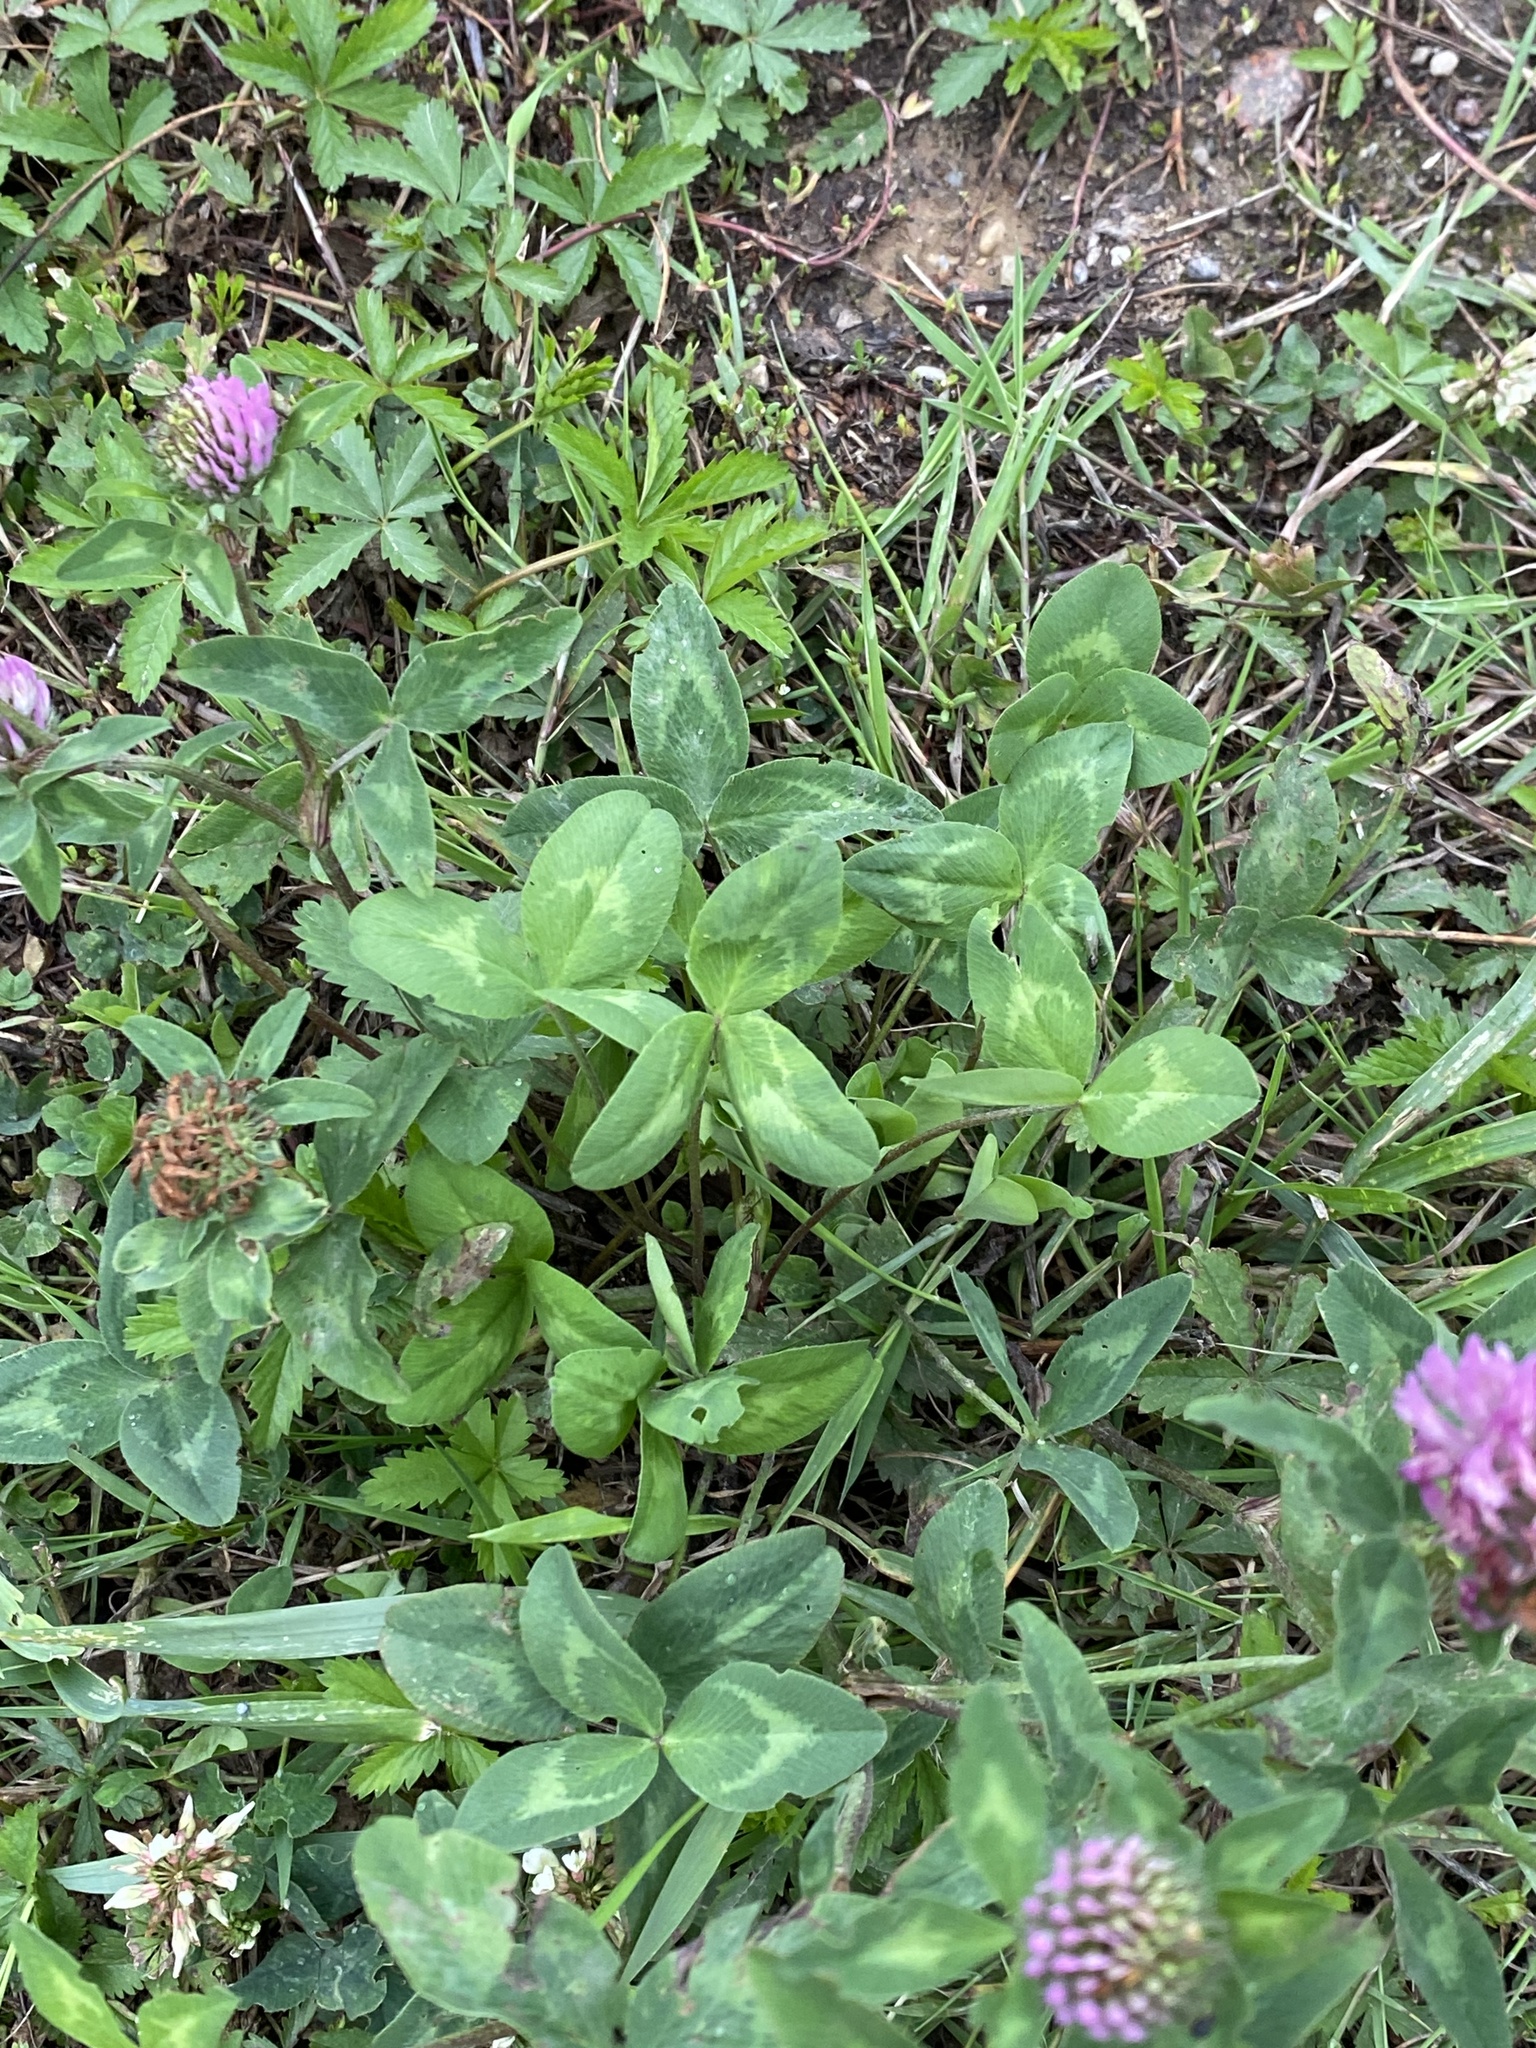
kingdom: Plantae
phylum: Tracheophyta
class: Magnoliopsida
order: Fabales
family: Fabaceae
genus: Trifolium
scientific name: Trifolium pratense
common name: Red clover
